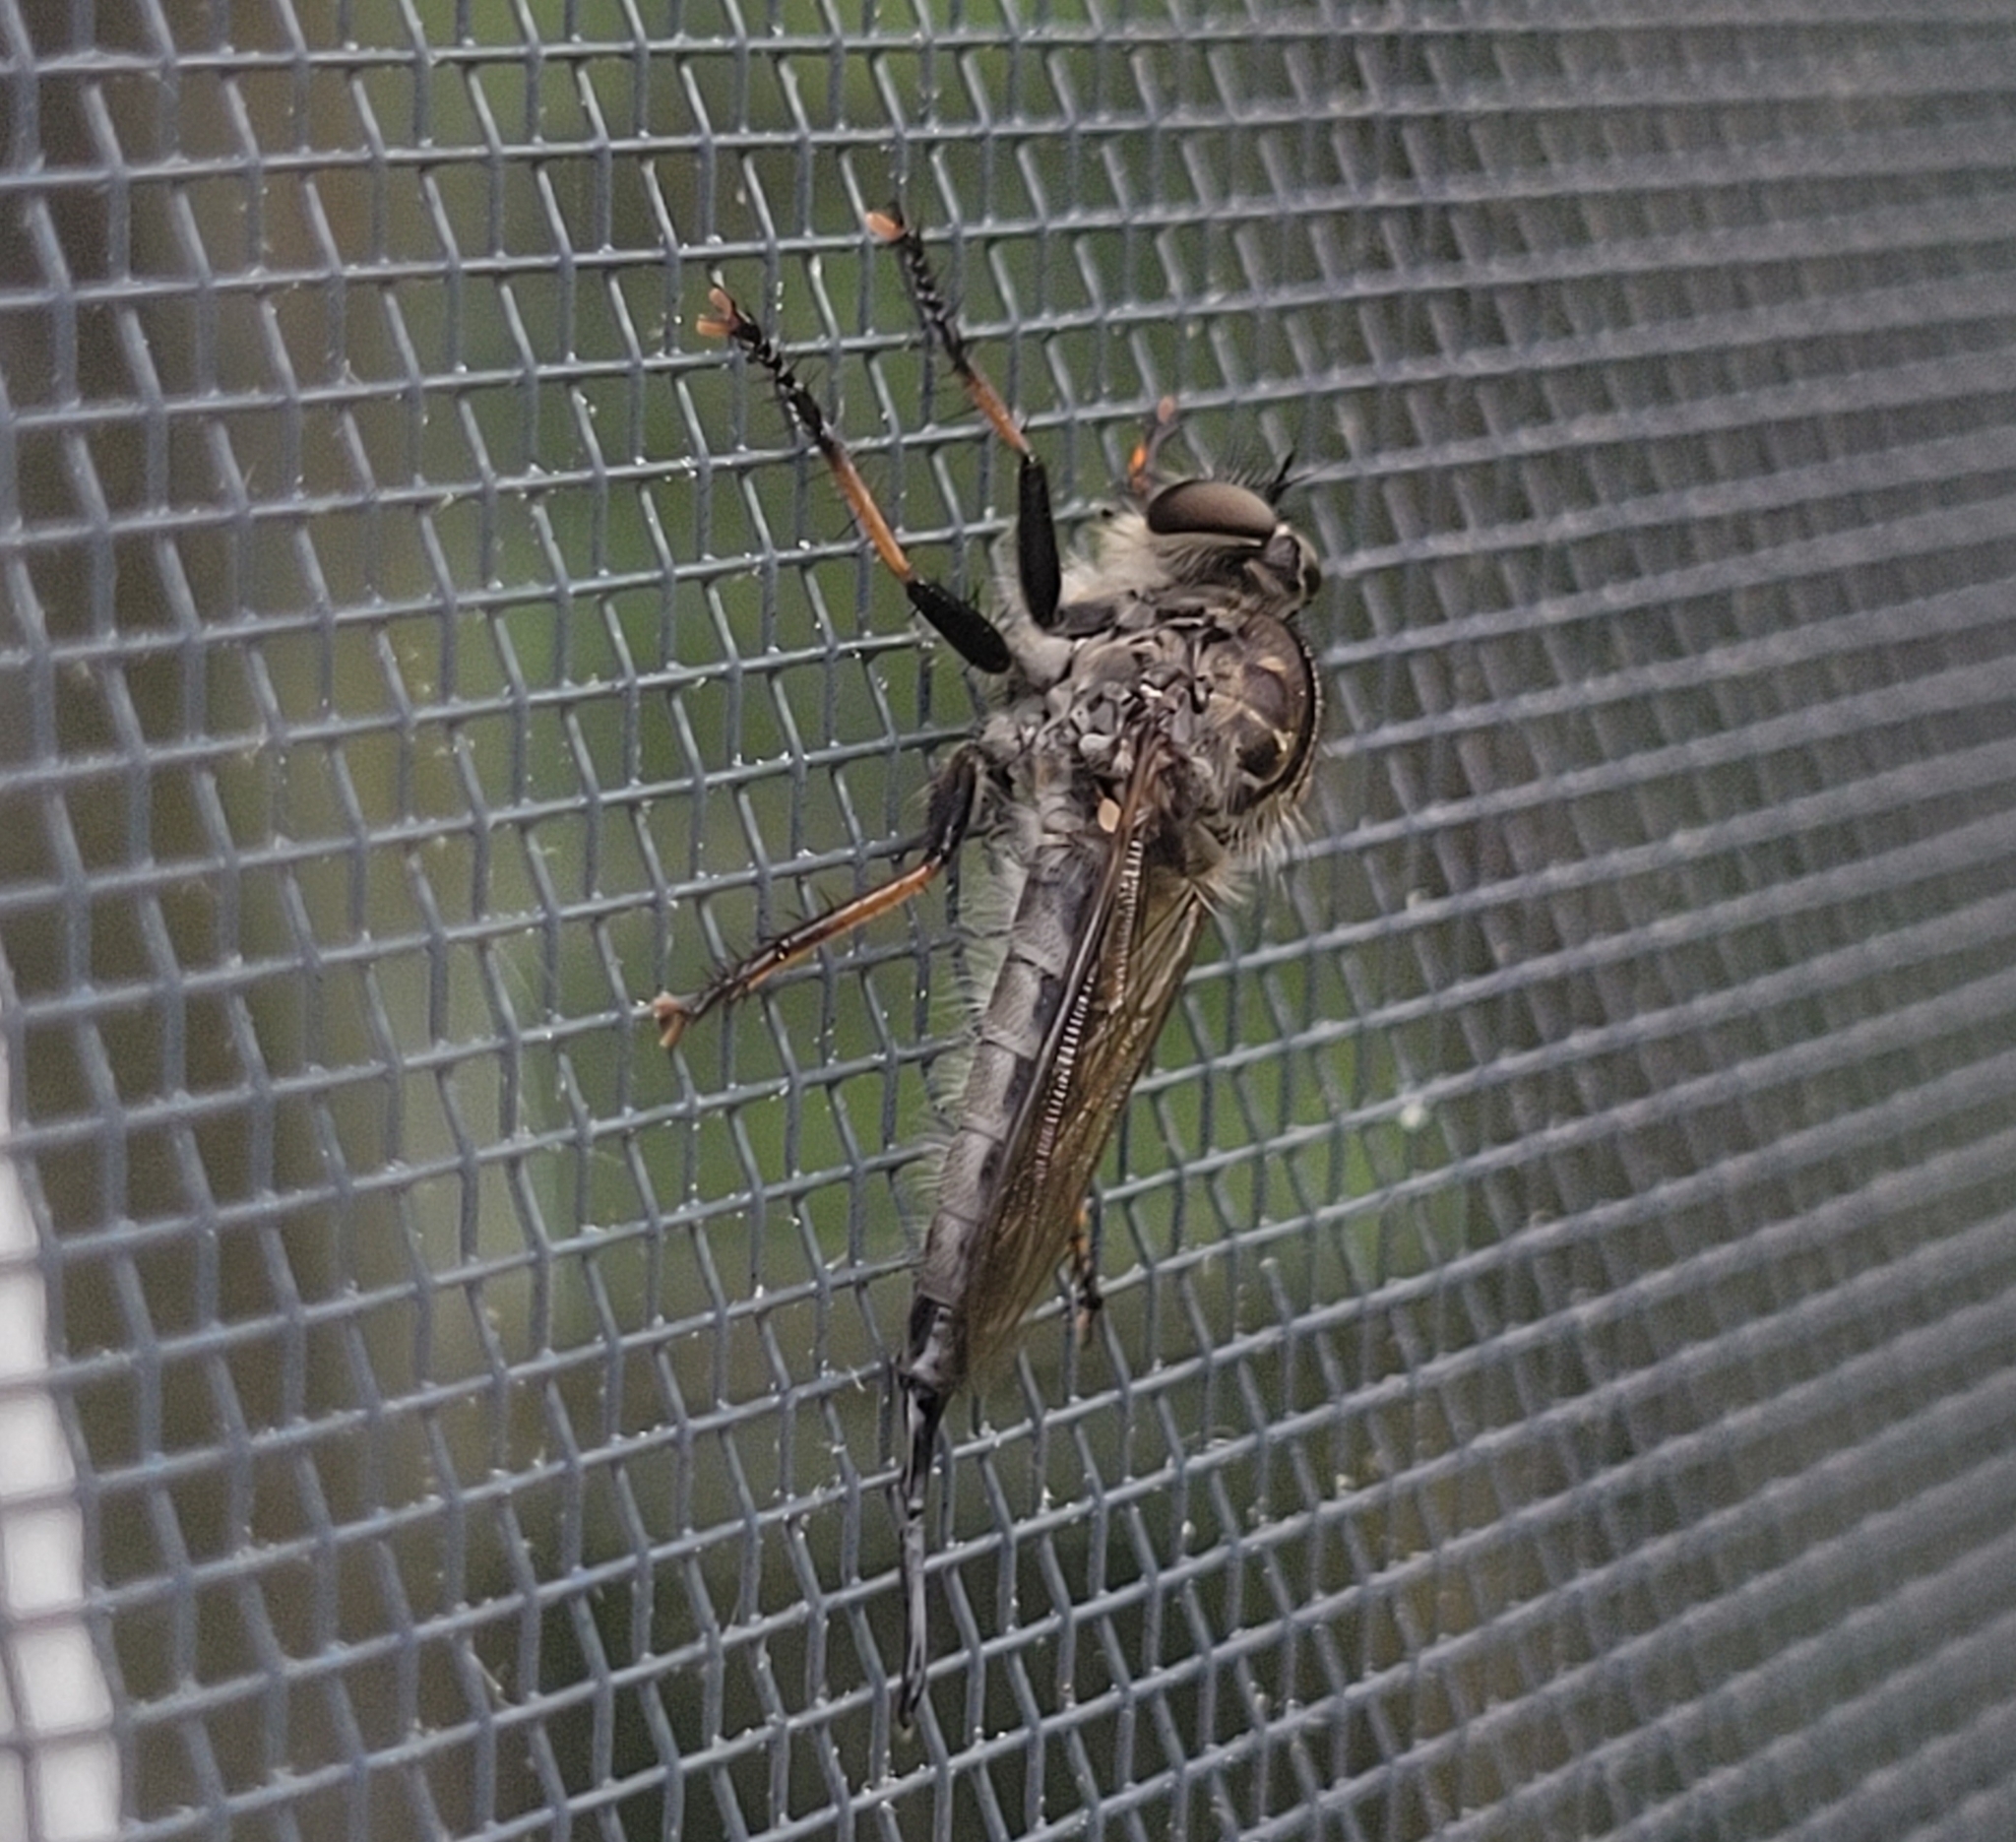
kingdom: Animalia
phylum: Arthropoda
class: Insecta
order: Diptera
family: Asilidae
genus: Efferia
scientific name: Efferia aestuans
